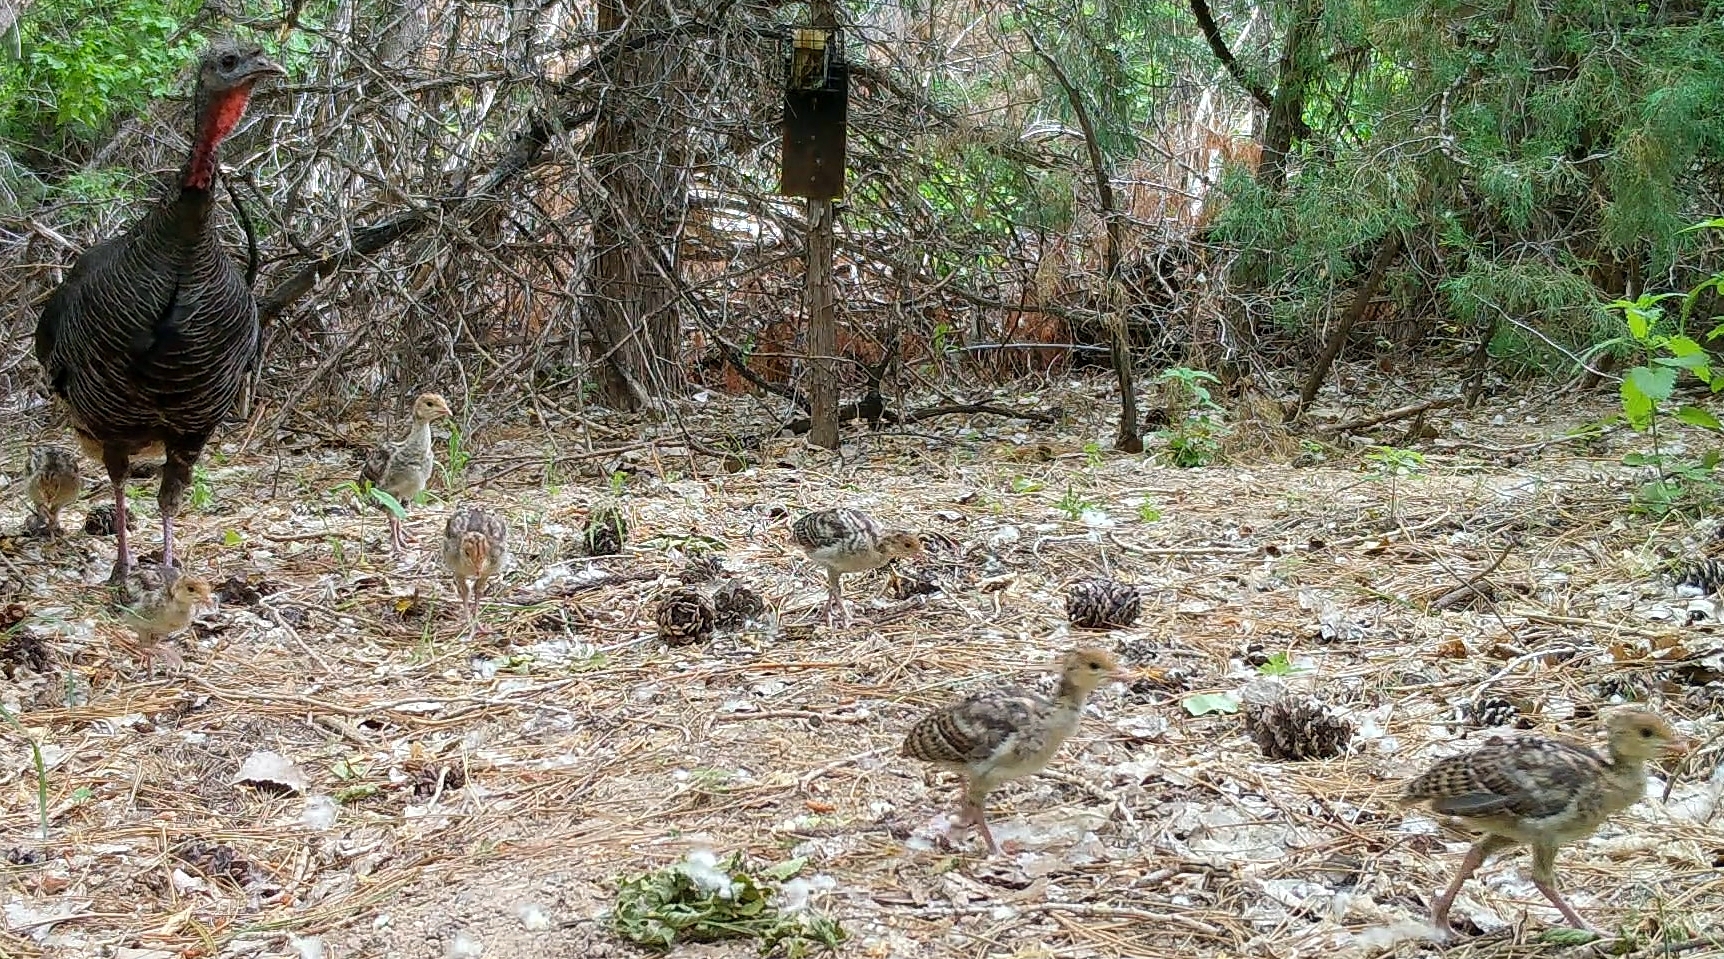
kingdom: Animalia
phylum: Chordata
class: Aves
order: Galliformes
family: Phasianidae
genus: Meleagris
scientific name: Meleagris gallopavo
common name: Wild turkey
